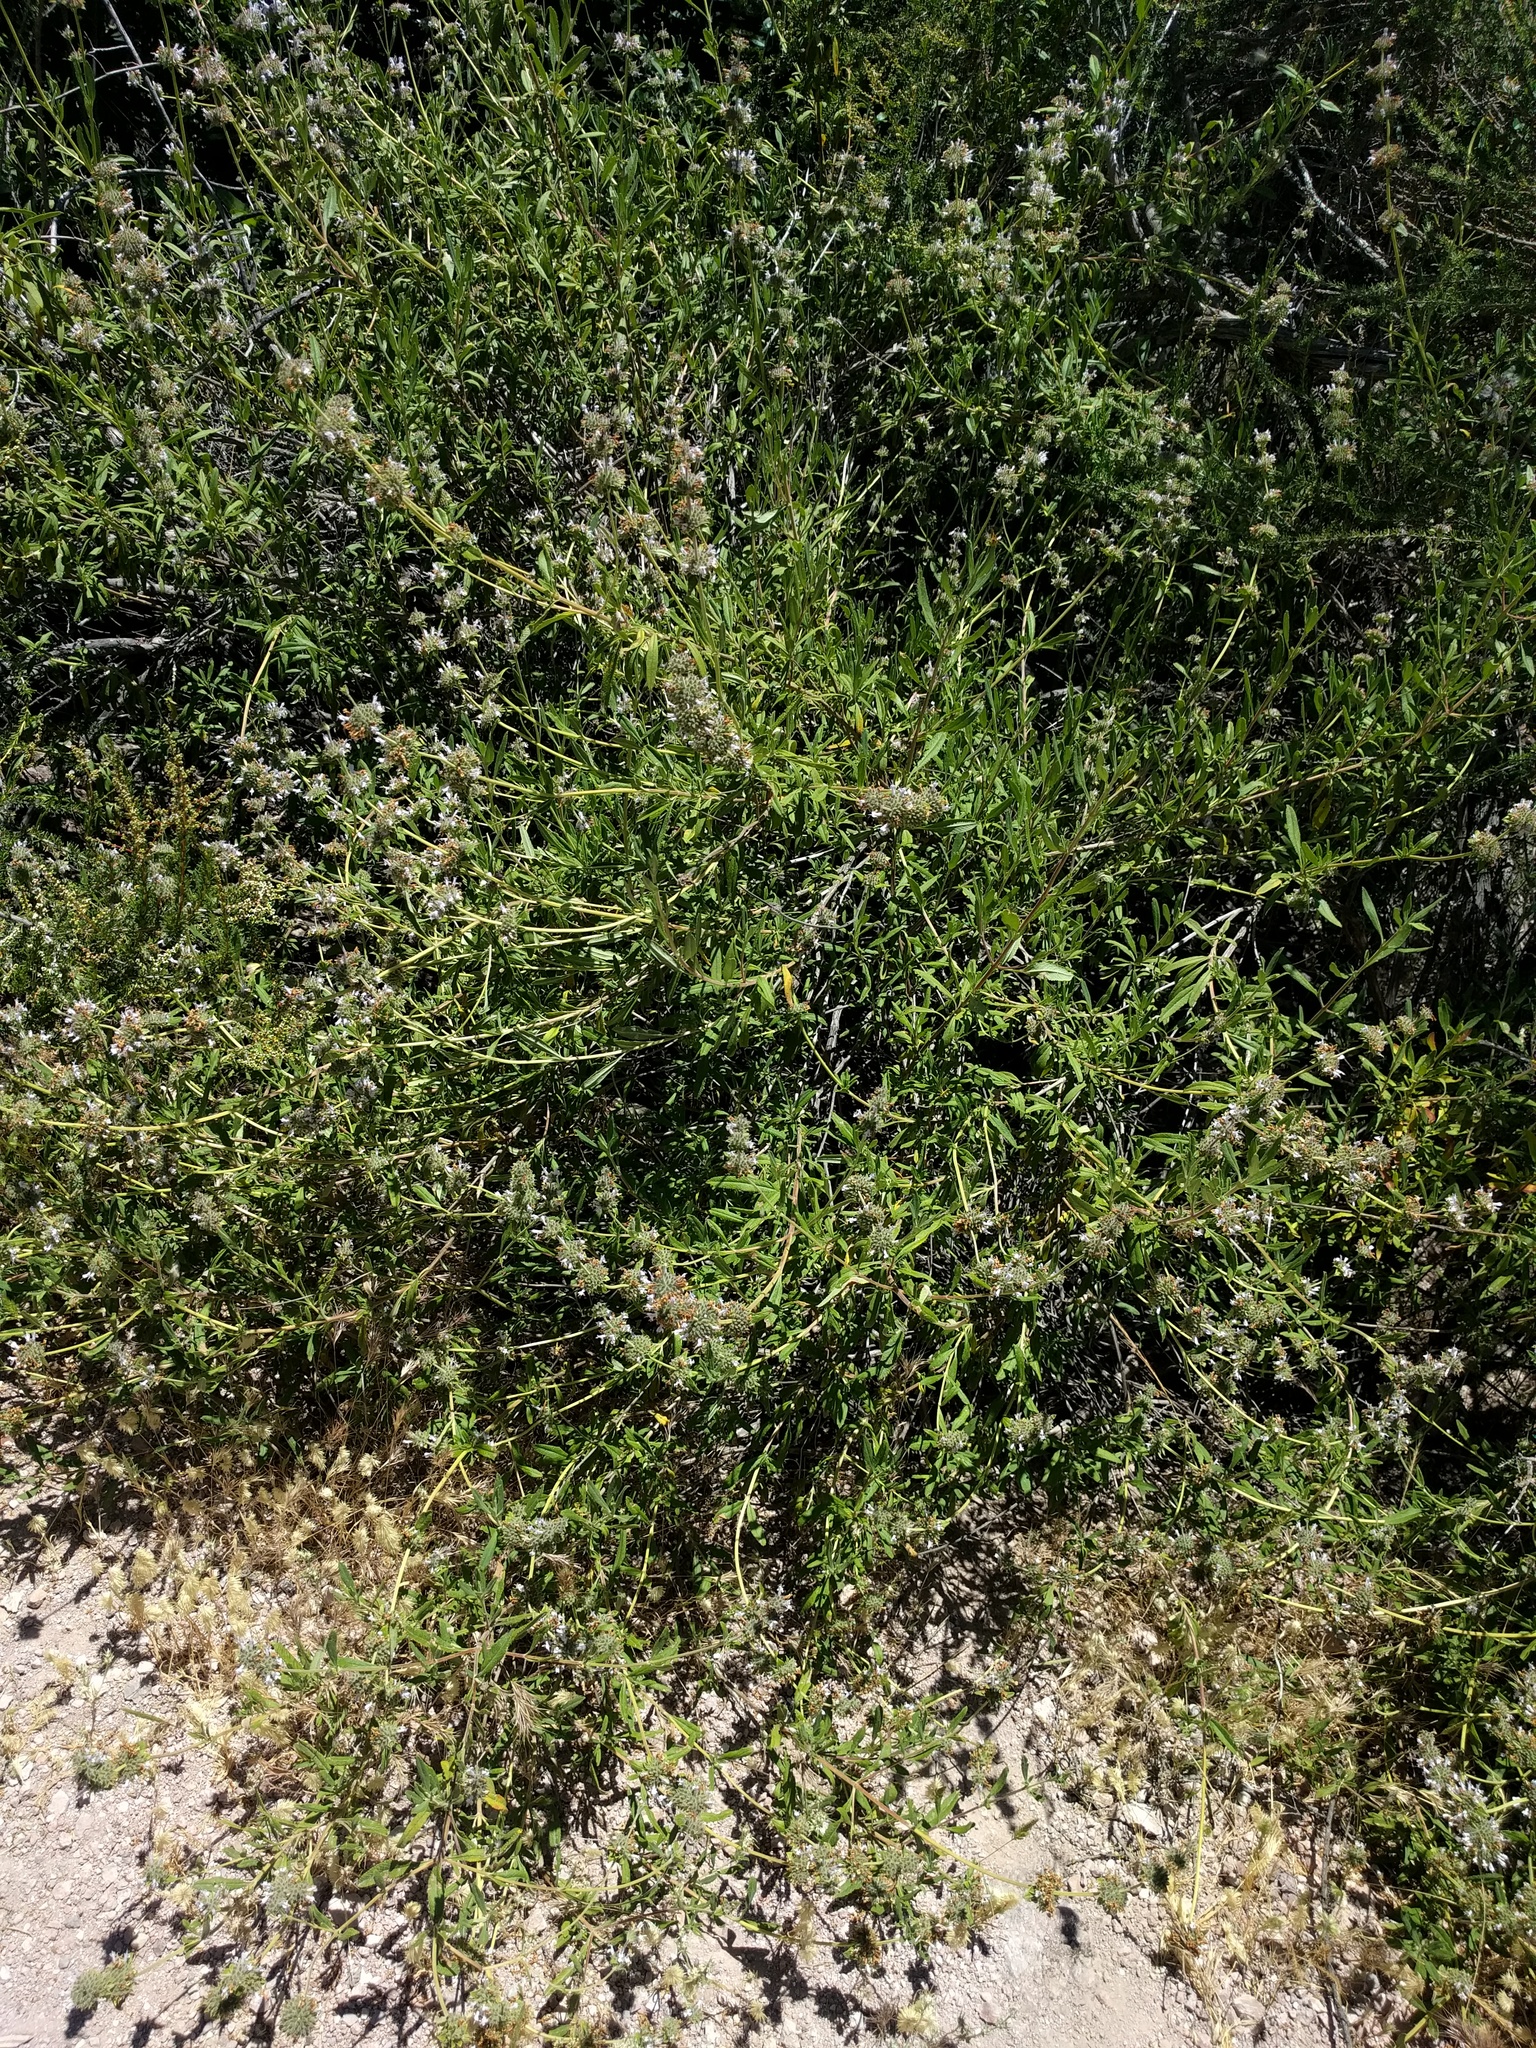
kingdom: Plantae
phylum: Tracheophyta
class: Magnoliopsida
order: Lamiales
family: Lamiaceae
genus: Salvia
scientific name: Salvia mellifera
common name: Black sage
